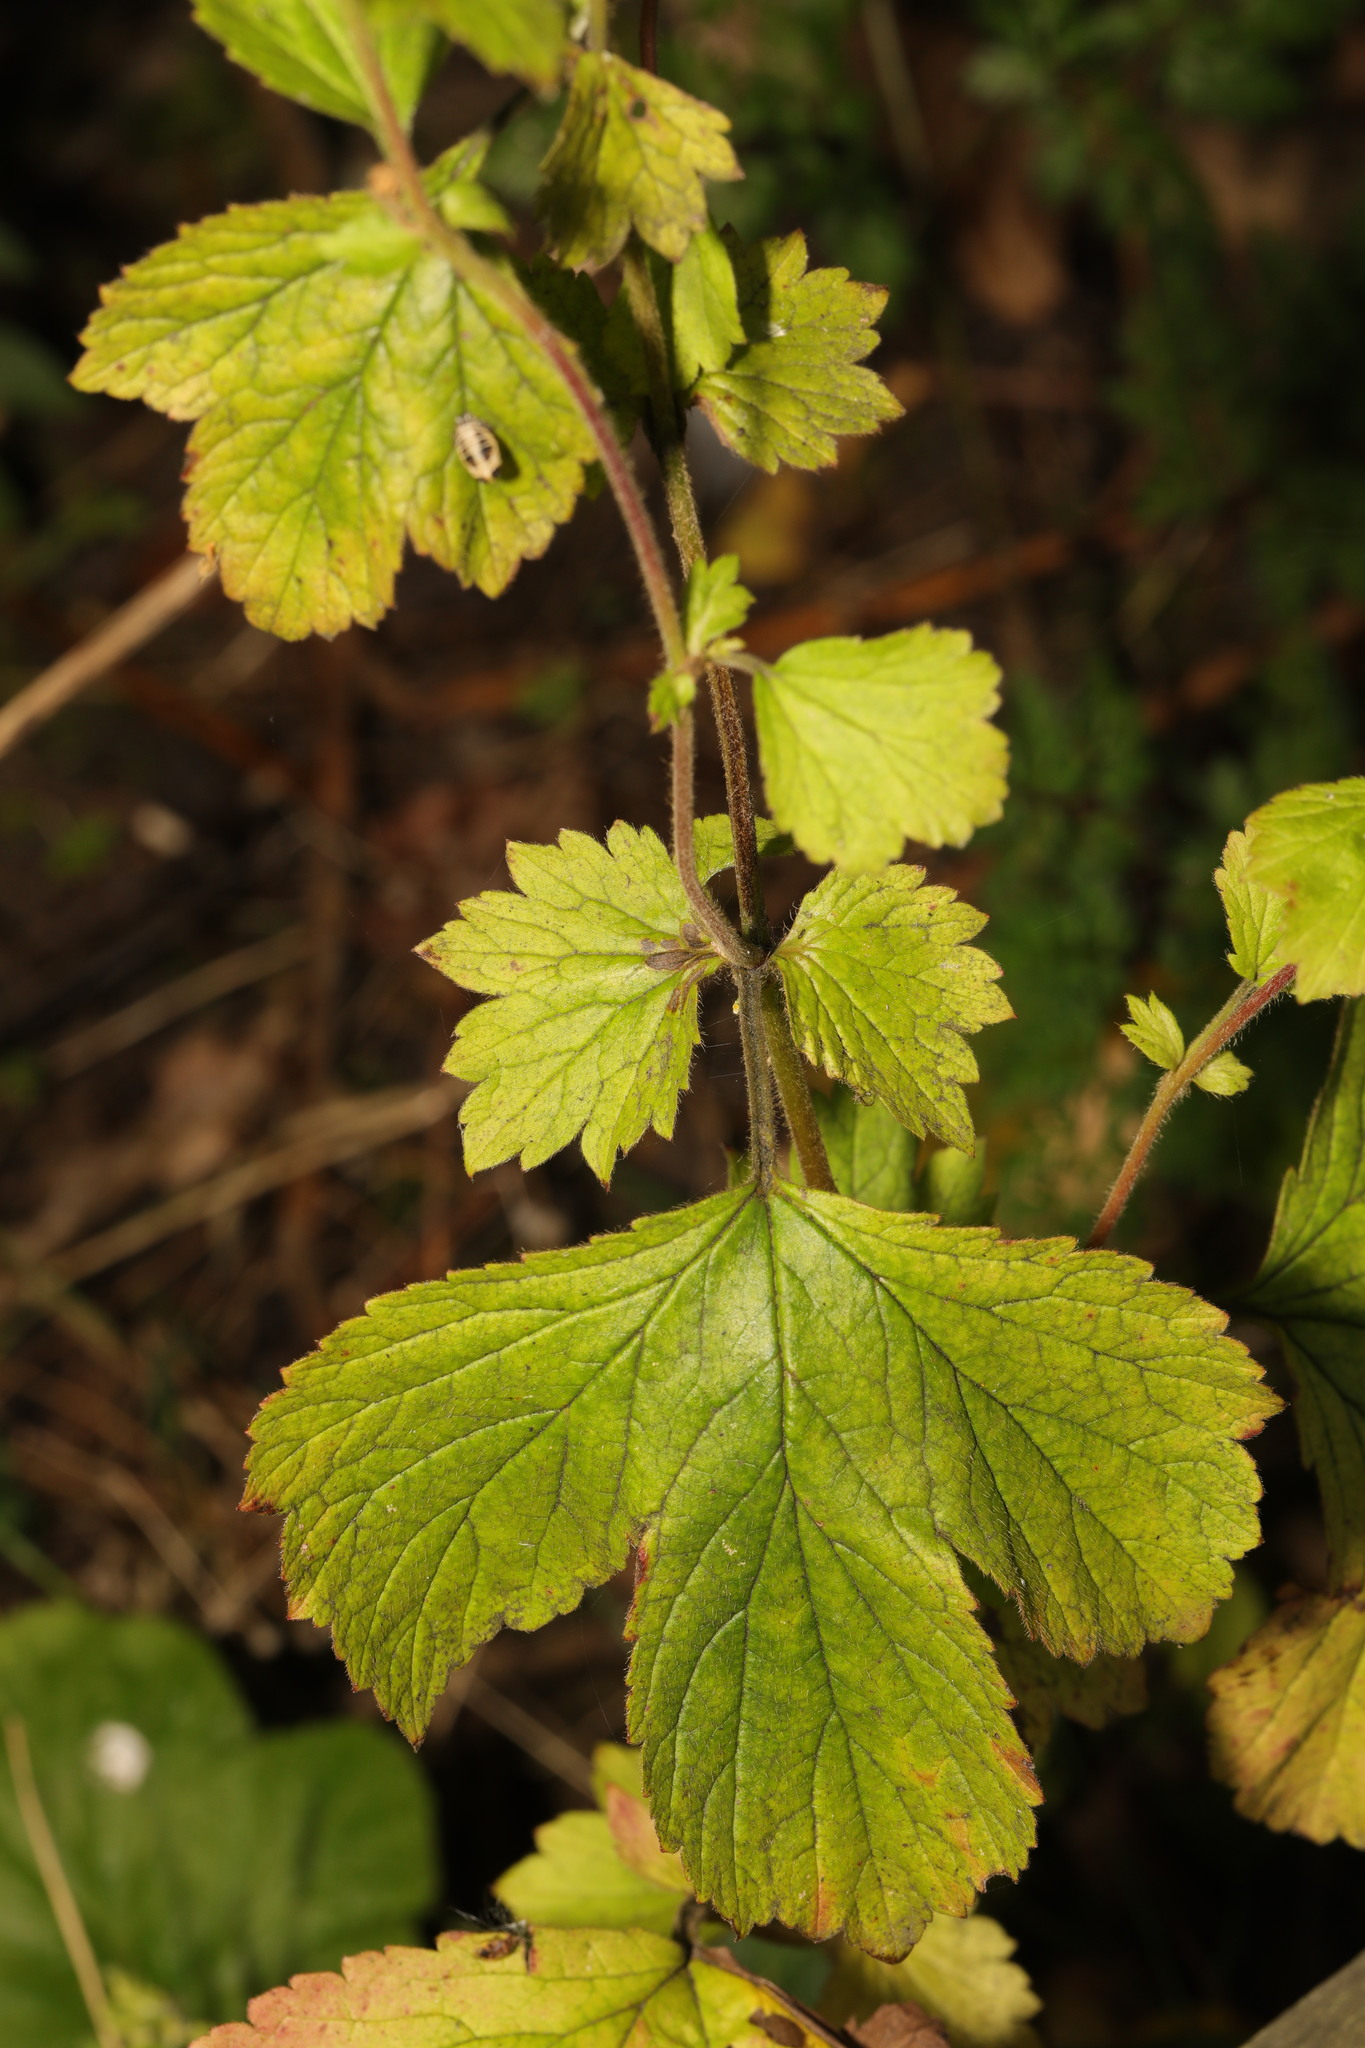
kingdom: Plantae
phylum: Tracheophyta
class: Magnoliopsida
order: Rosales
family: Rosaceae
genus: Geum
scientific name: Geum urbanum
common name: Wood avens
